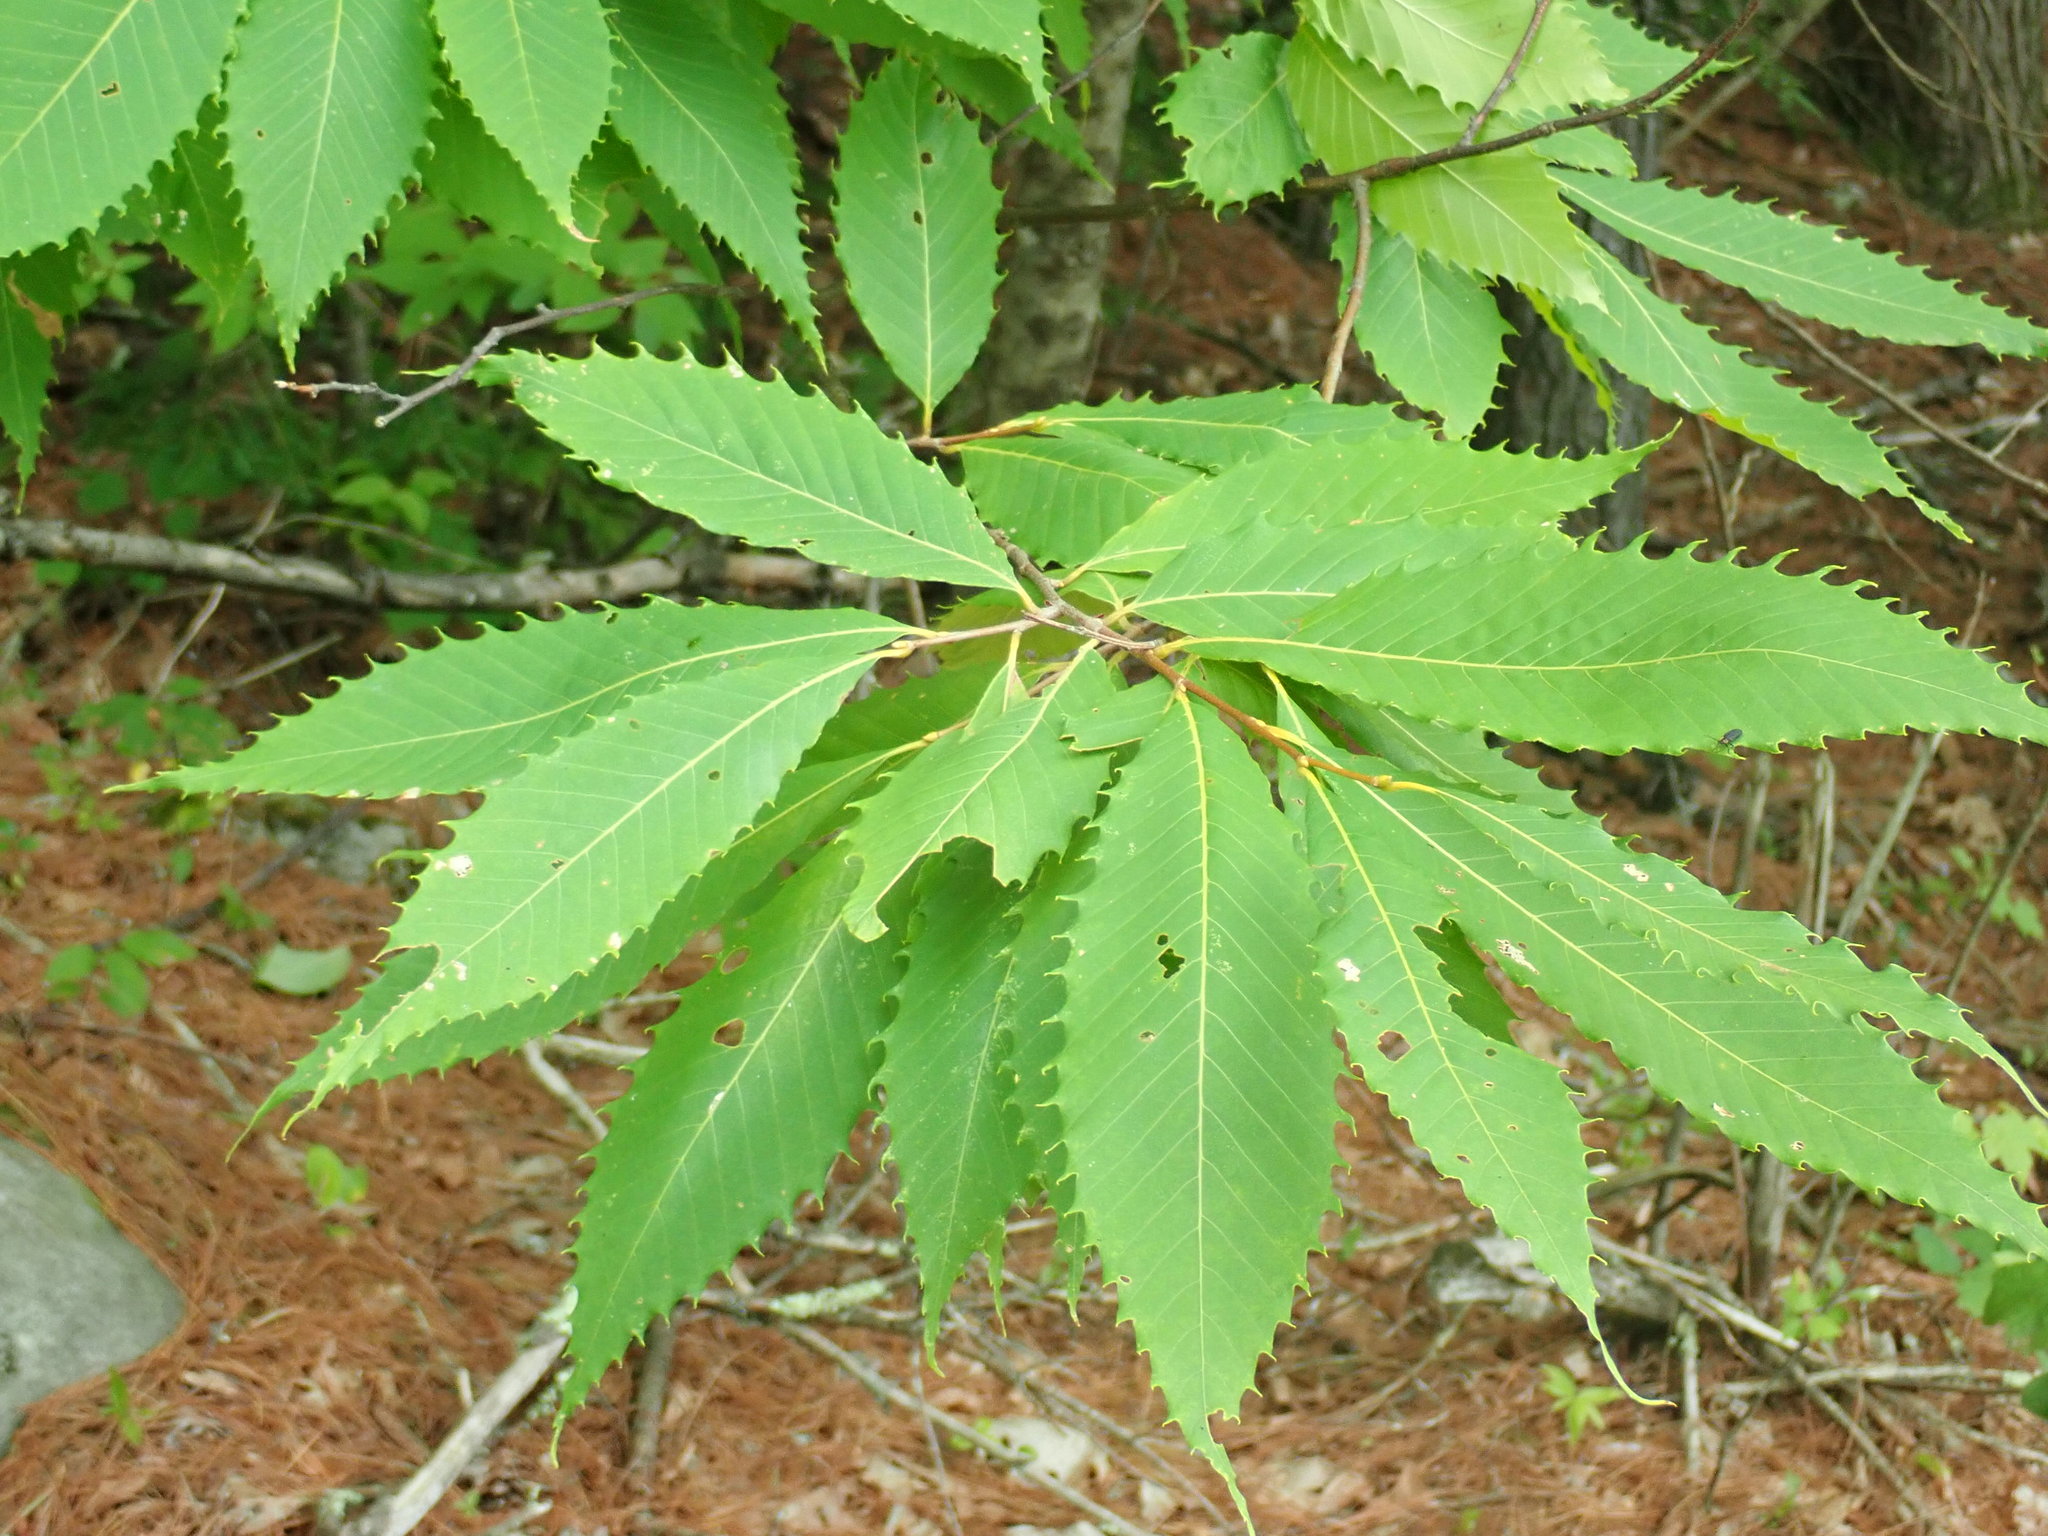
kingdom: Plantae
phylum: Tracheophyta
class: Magnoliopsida
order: Fagales
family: Fagaceae
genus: Castanea
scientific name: Castanea dentata
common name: American chestnut
